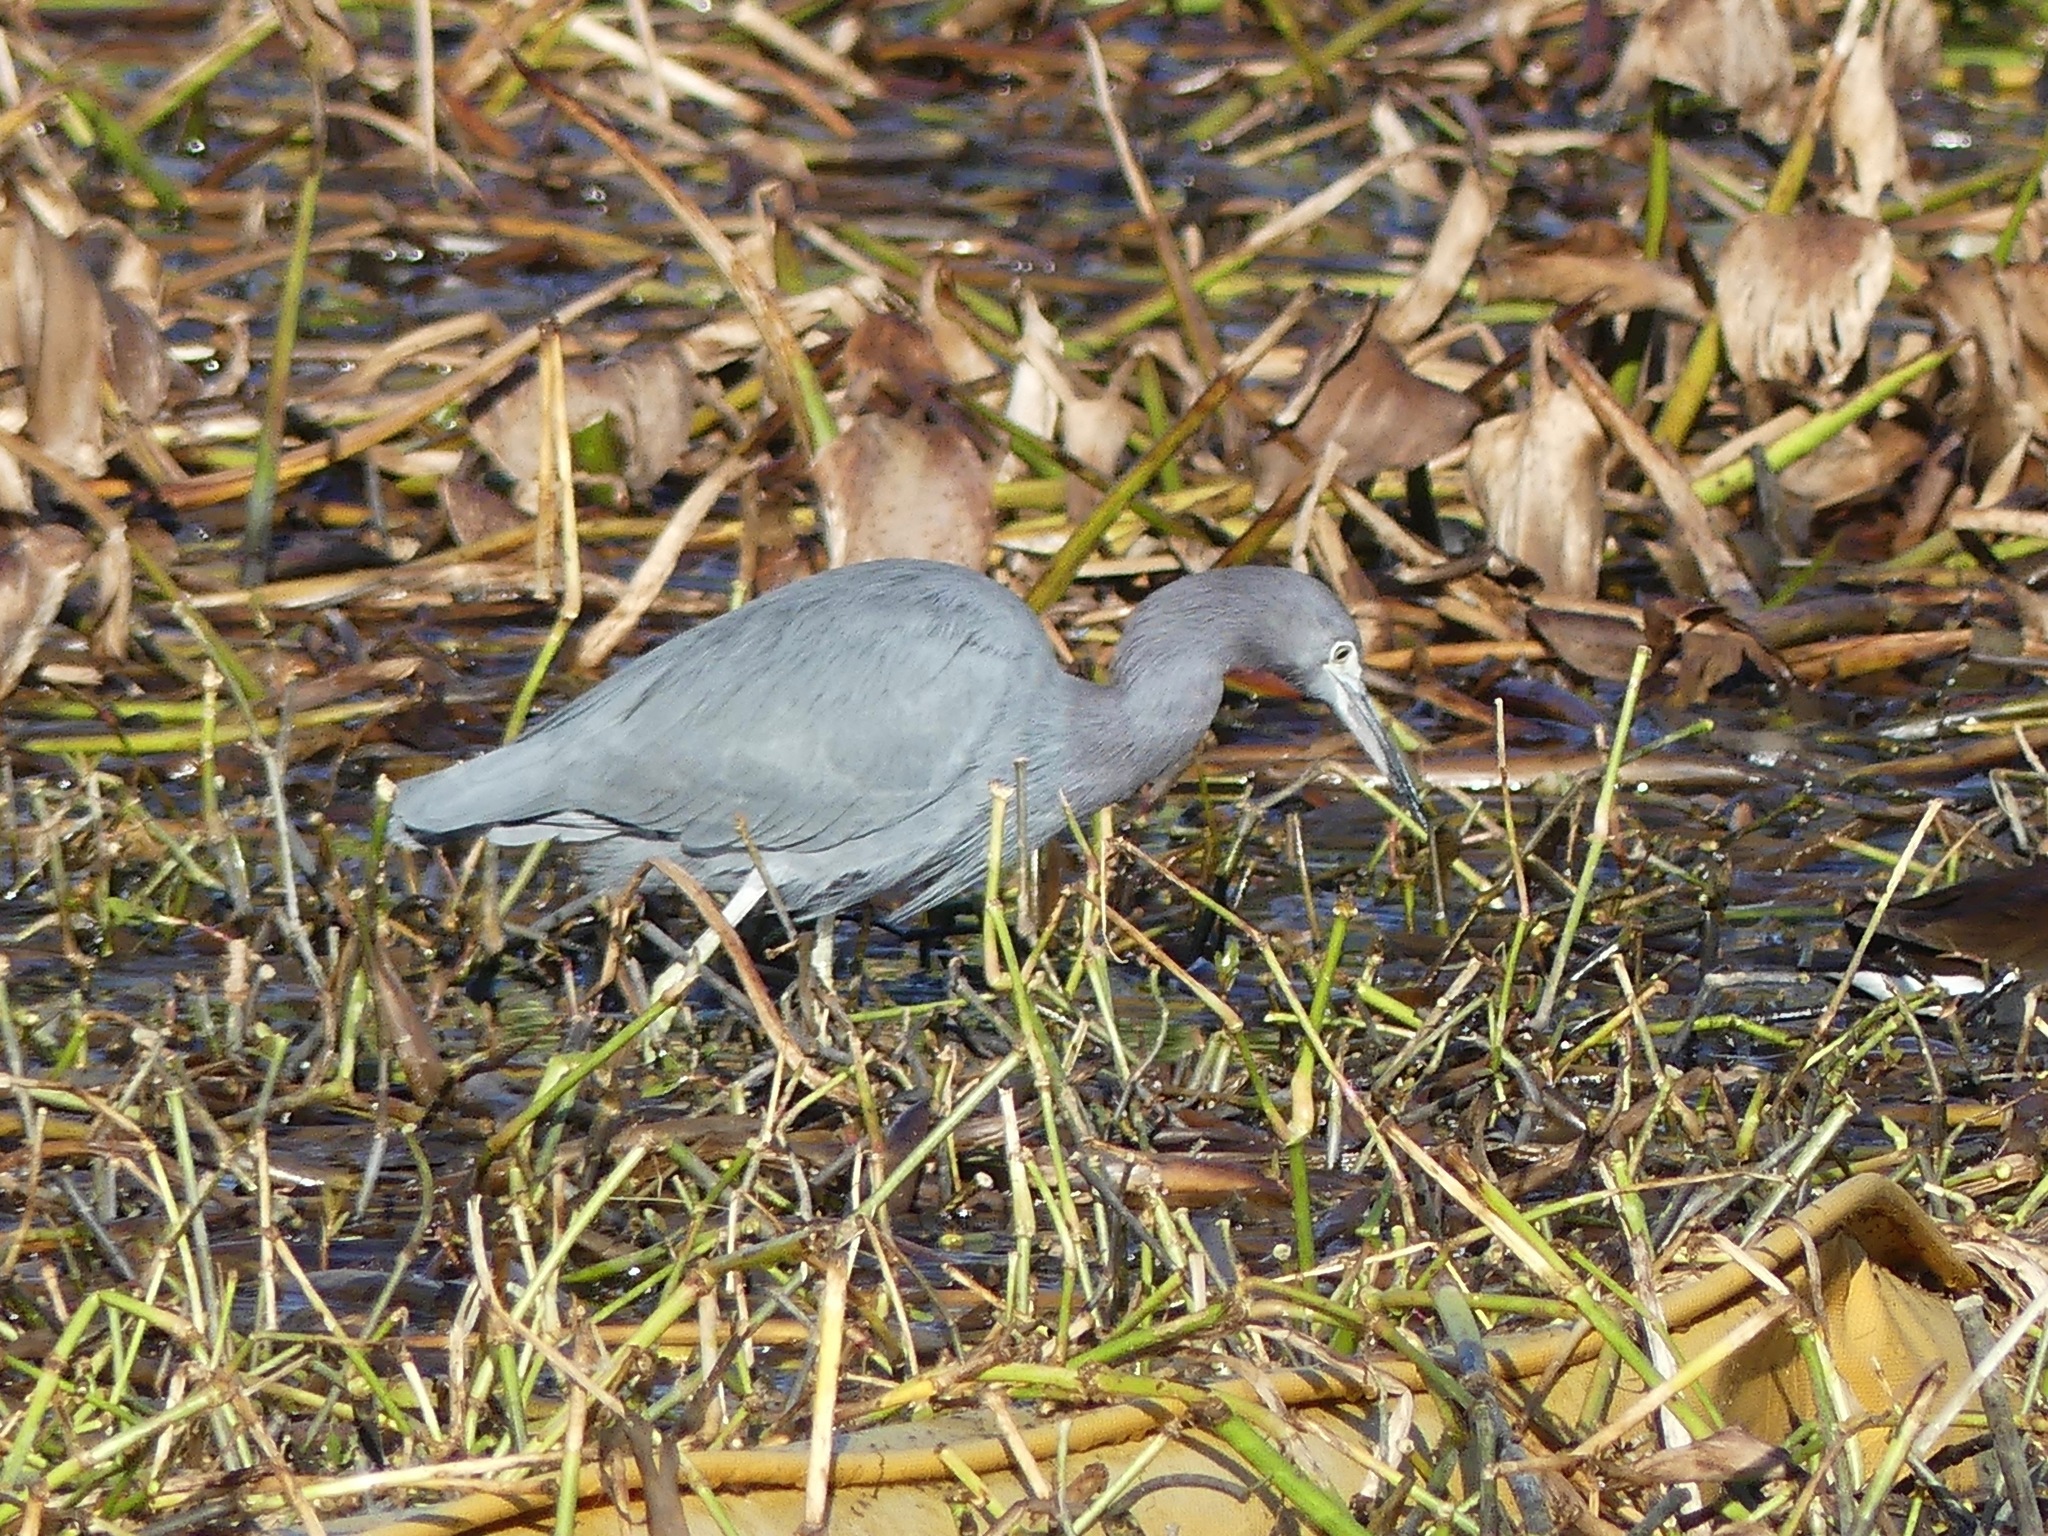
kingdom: Animalia
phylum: Chordata
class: Aves
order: Pelecaniformes
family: Ardeidae
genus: Egretta
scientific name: Egretta caerulea
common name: Little blue heron
